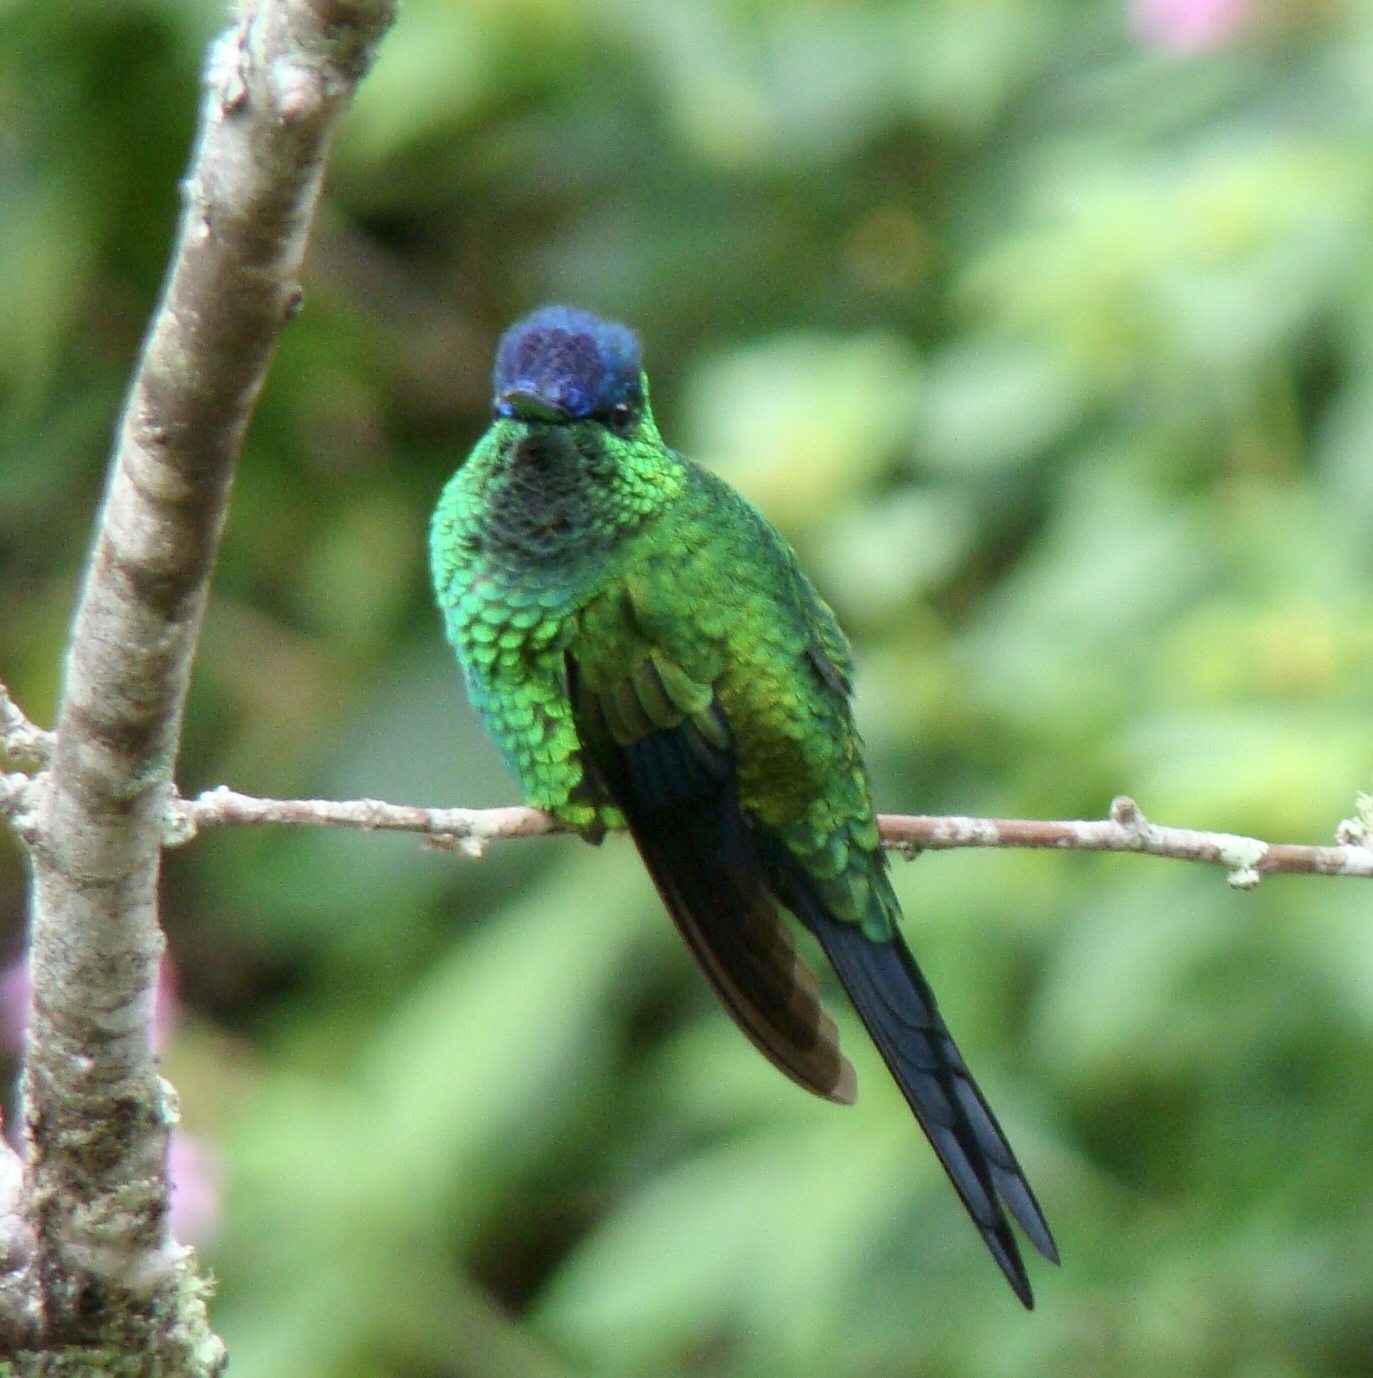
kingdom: Animalia
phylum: Chordata
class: Aves
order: Apodiformes
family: Trochilidae
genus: Thalurania
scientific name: Thalurania glaucopis
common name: Violet-capped woodnymph
